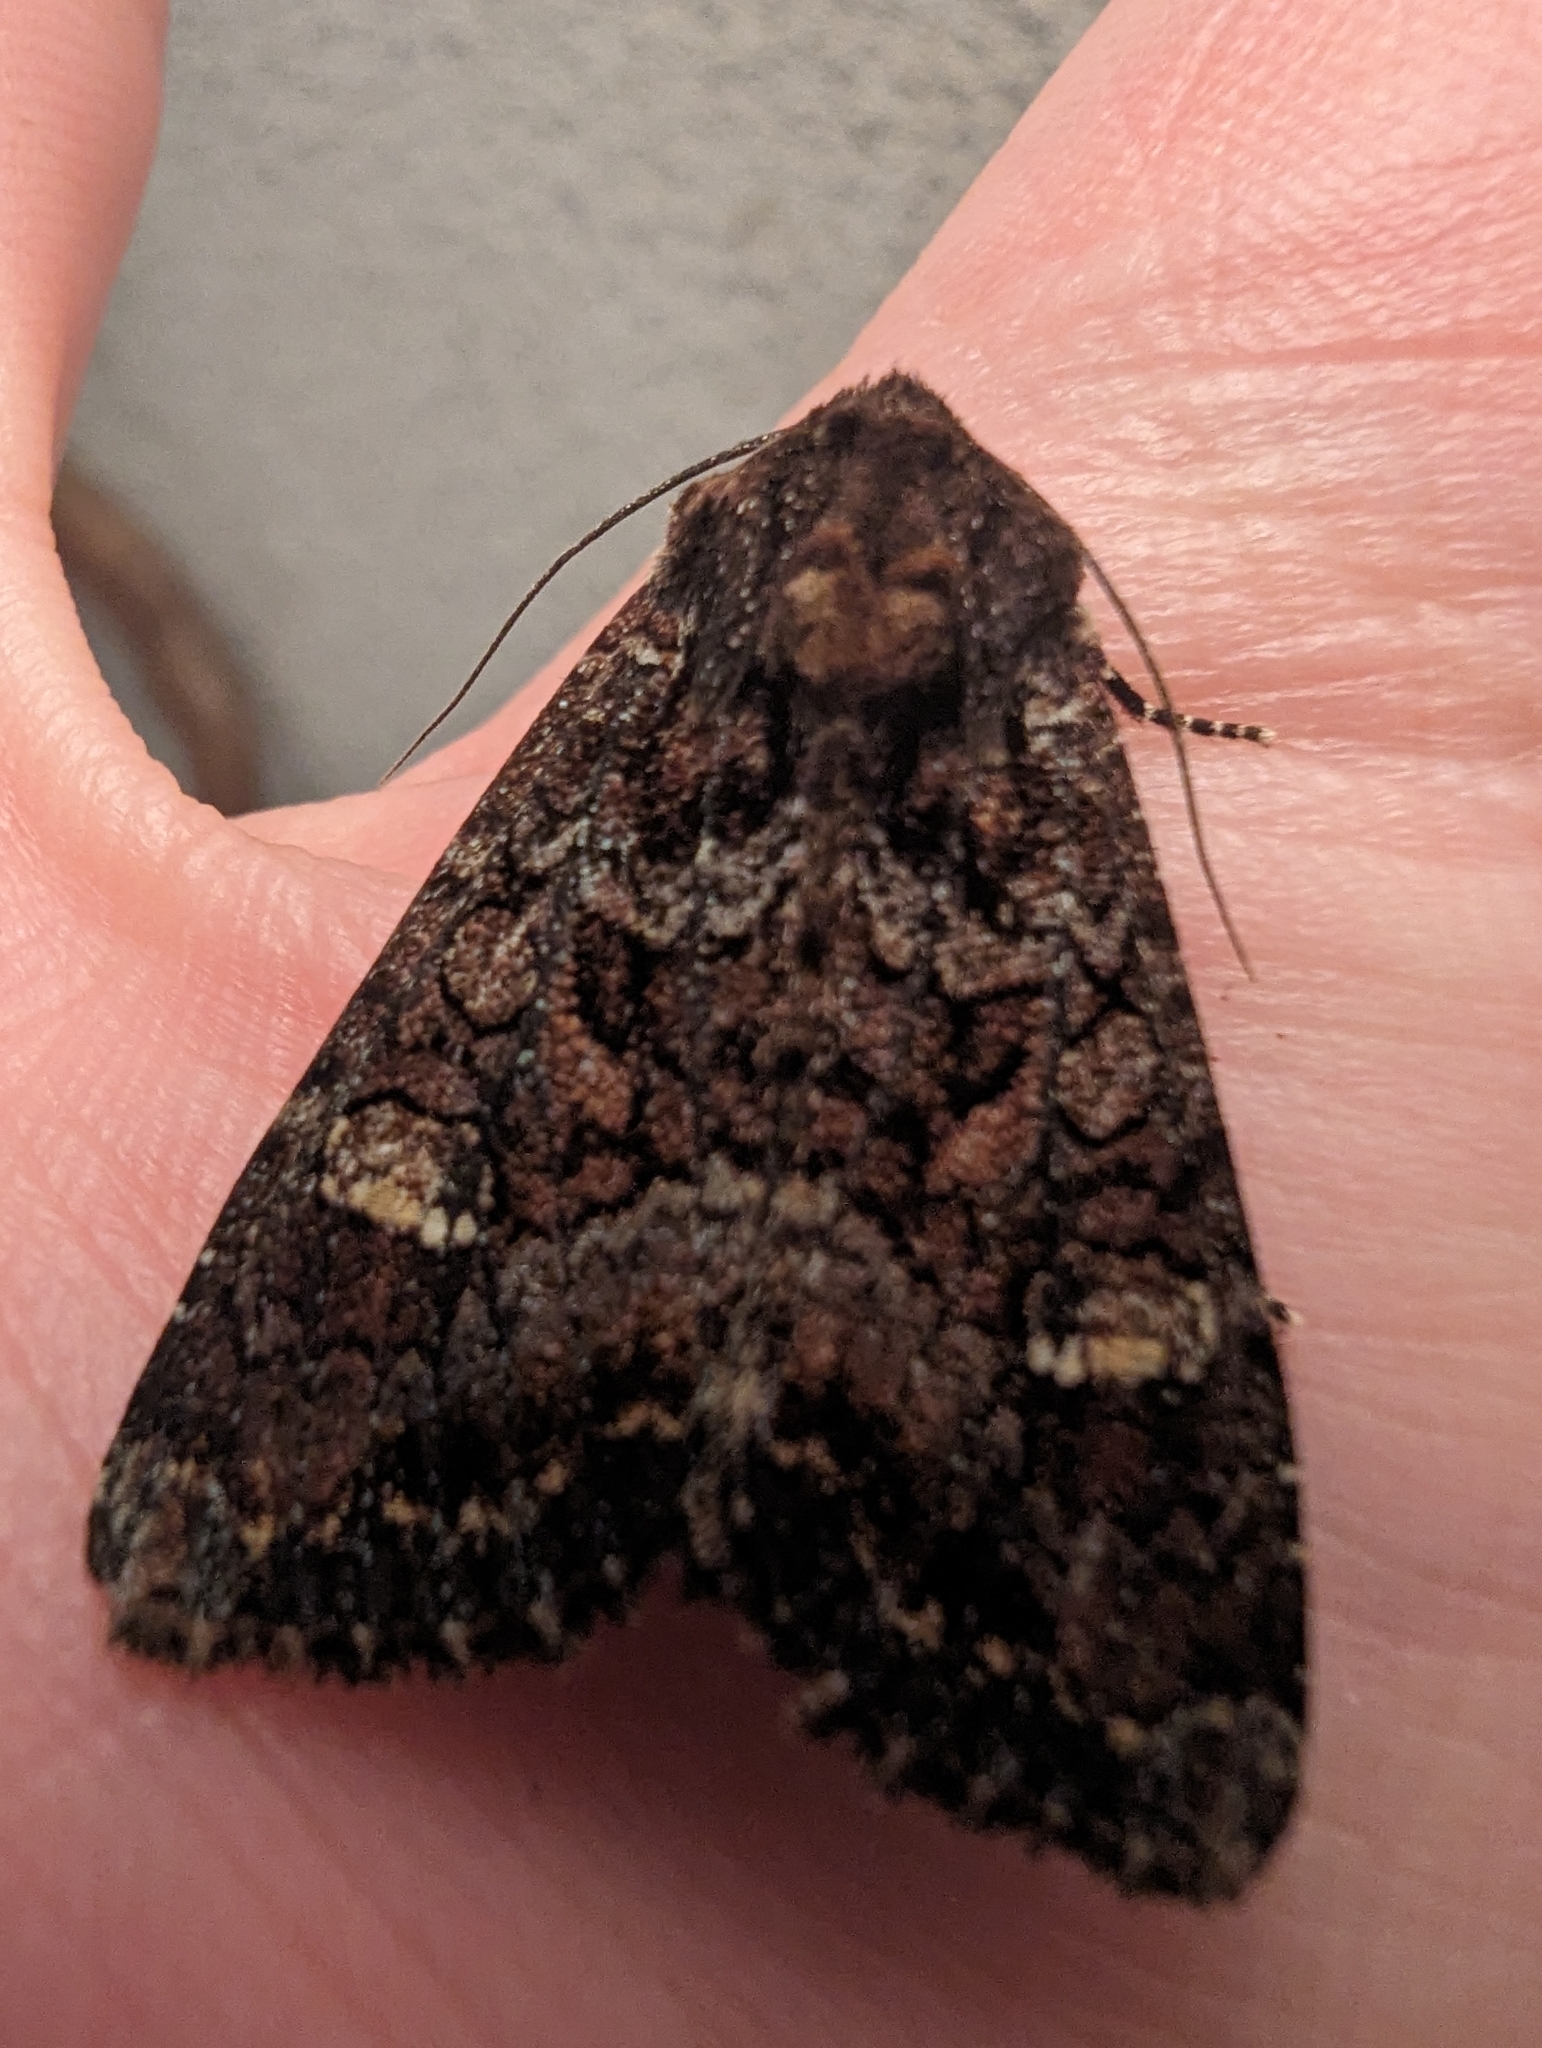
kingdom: Animalia
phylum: Arthropoda
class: Insecta
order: Lepidoptera
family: Noctuidae
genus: Apamea
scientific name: Apamea amputatrix
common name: Yellow-headed cutworm moth
